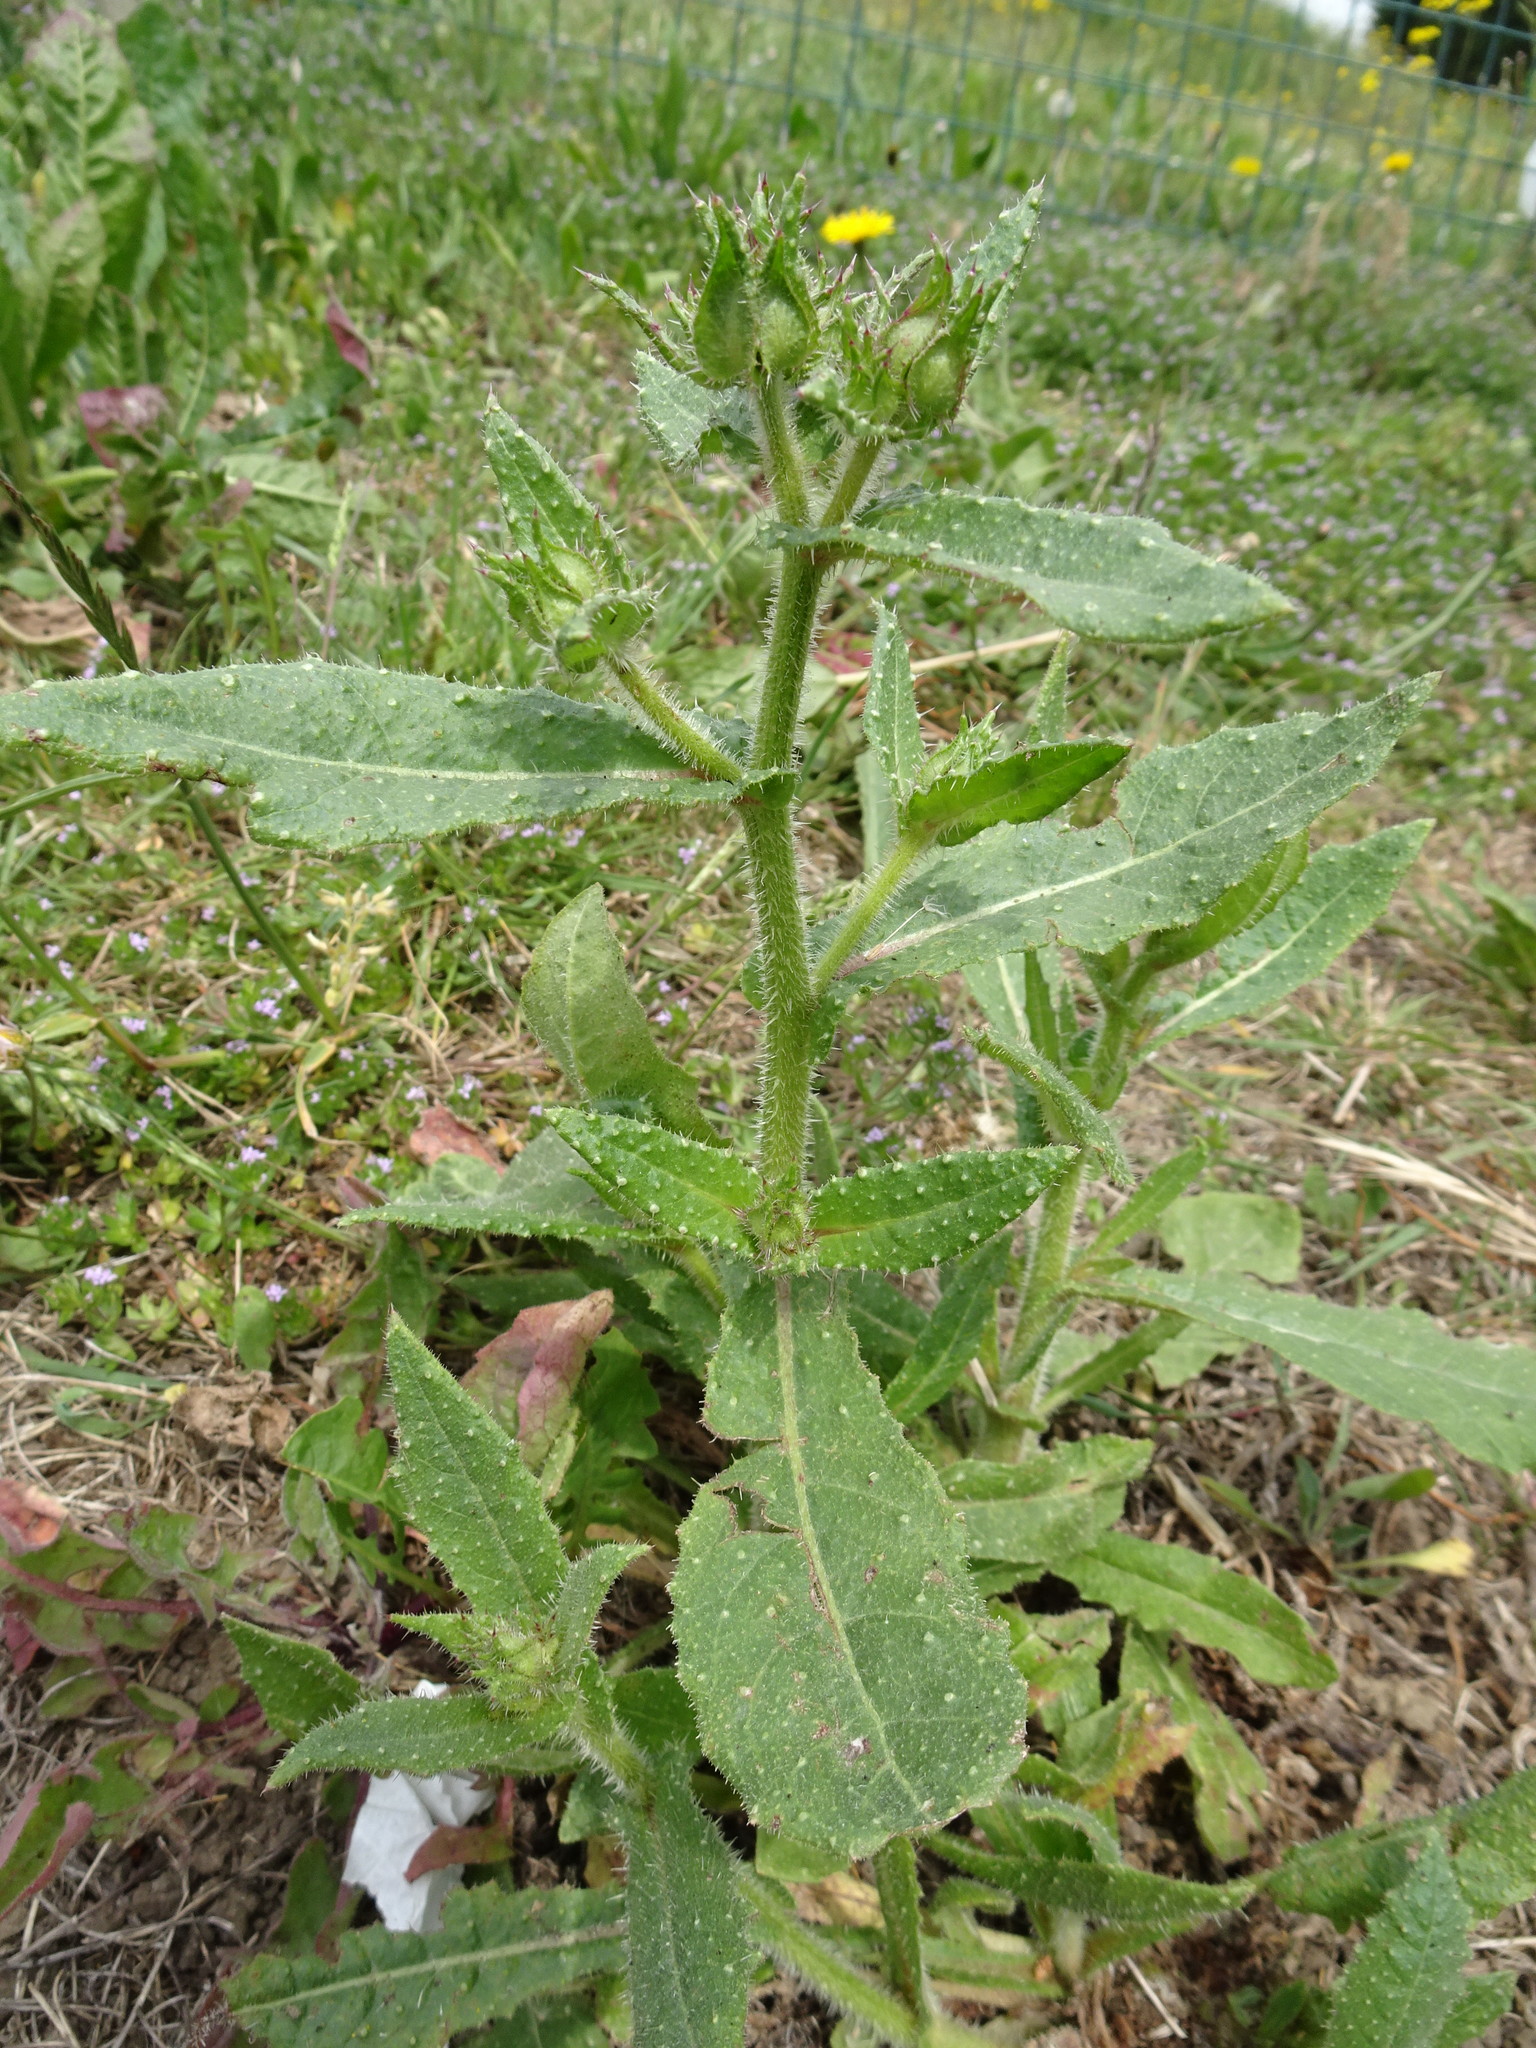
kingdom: Plantae
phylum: Tracheophyta
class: Magnoliopsida
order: Asterales
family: Asteraceae
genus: Helminthotheca
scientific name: Helminthotheca echioides
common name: Ox-tongue
